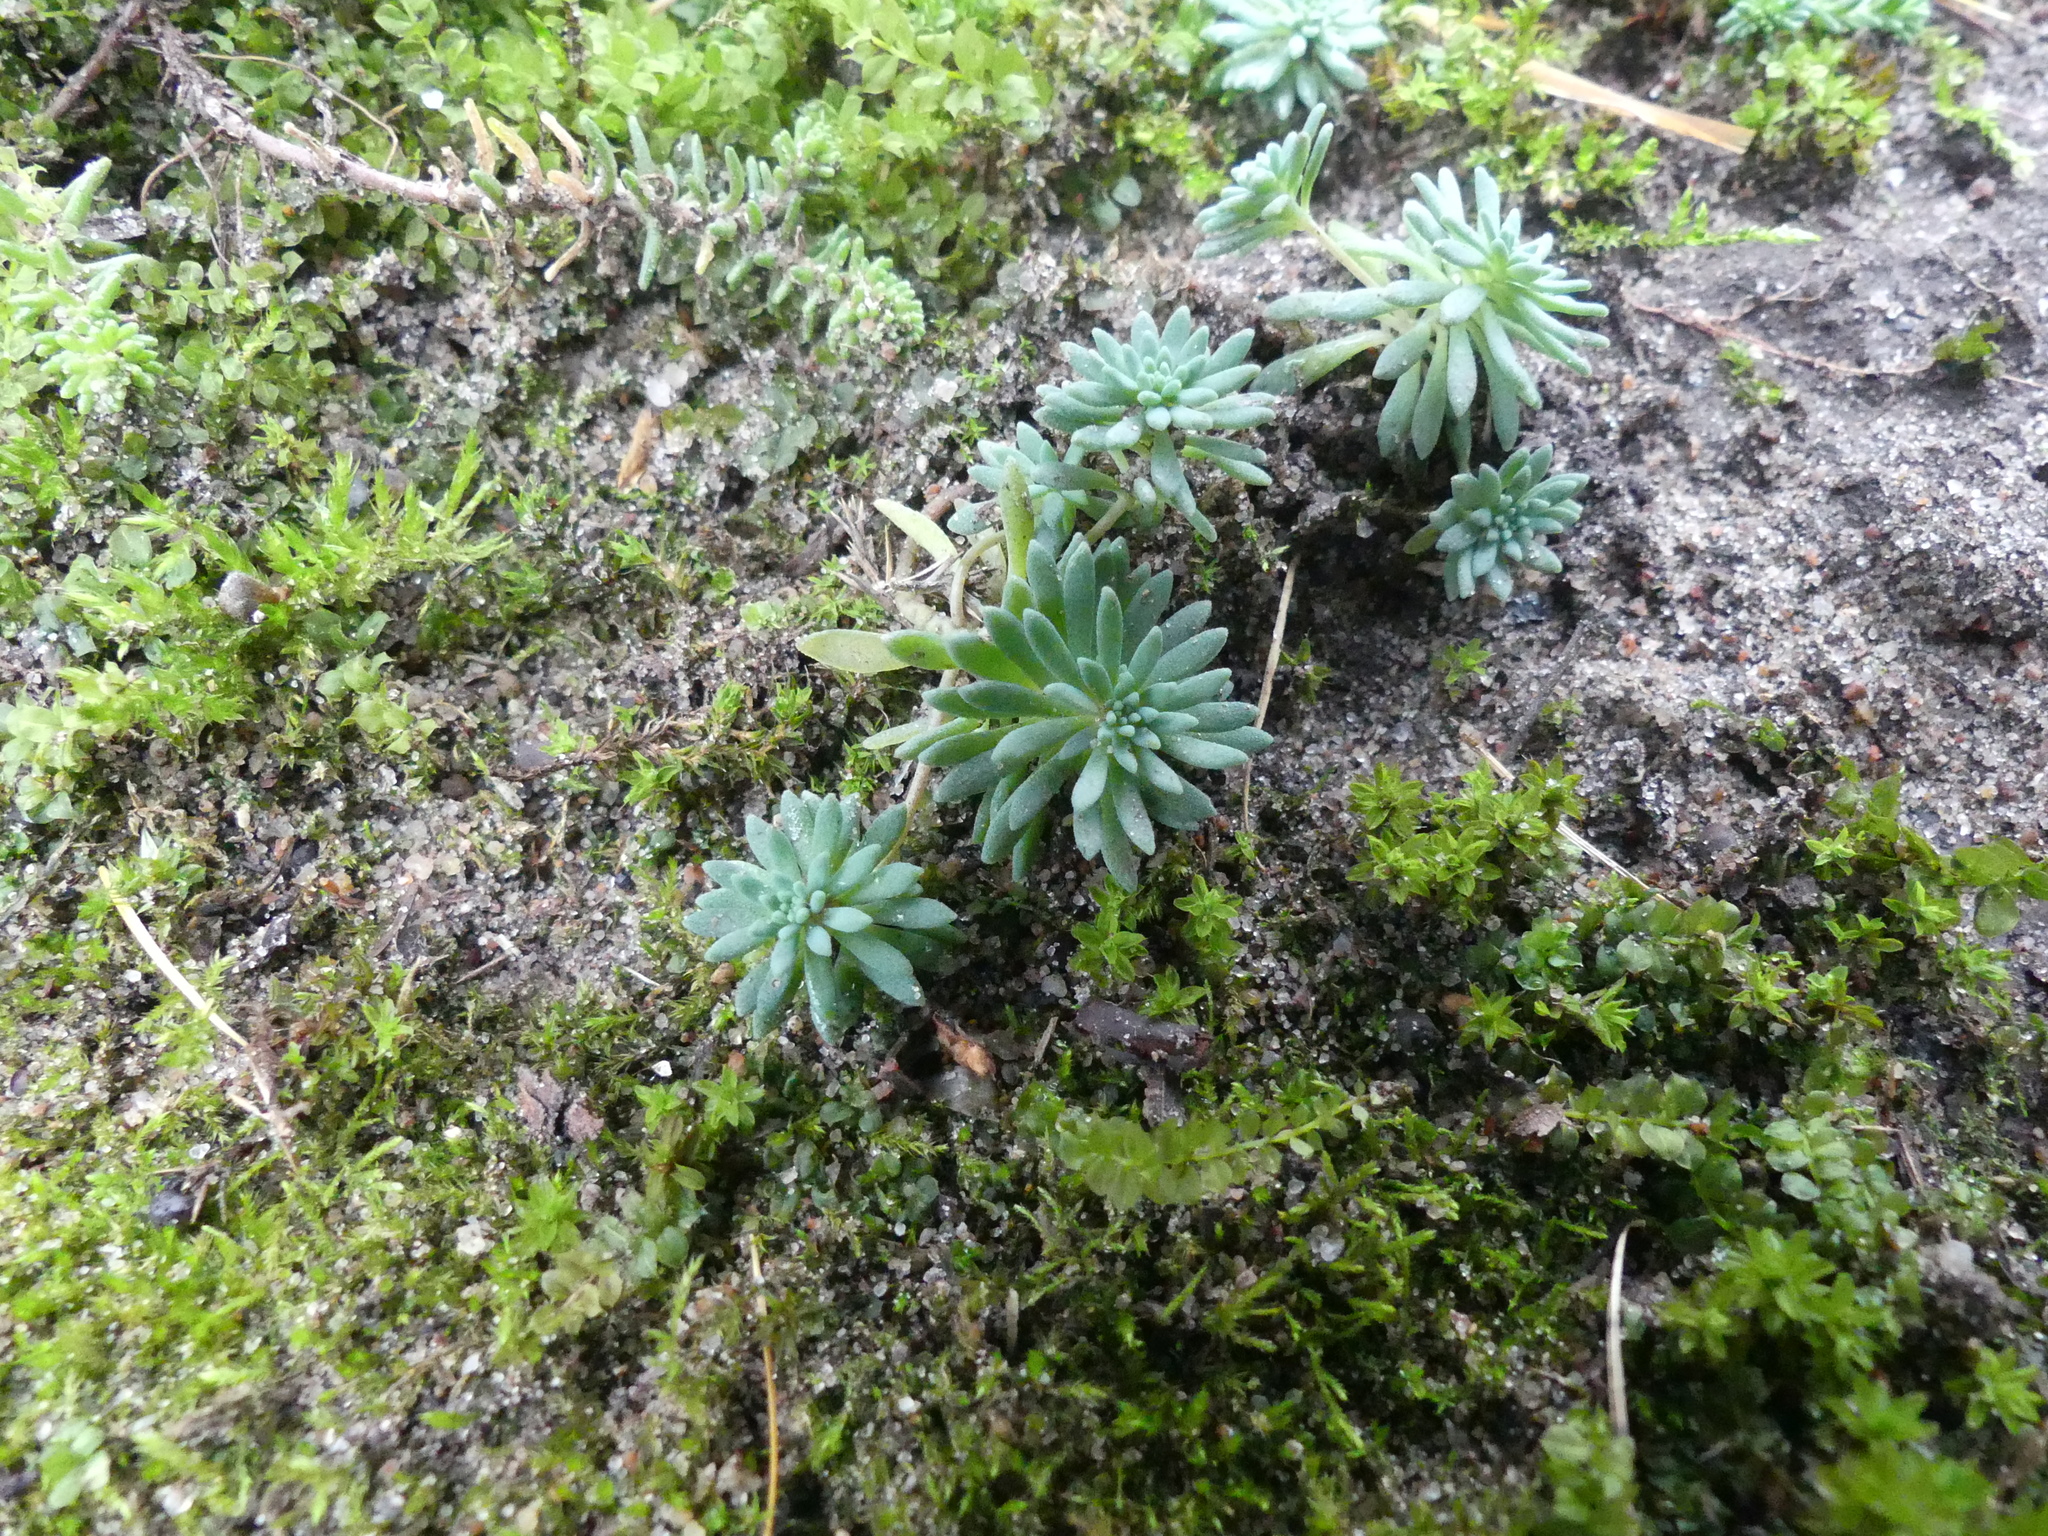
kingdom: Plantae
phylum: Tracheophyta
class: Magnoliopsida
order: Saxifragales
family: Crassulaceae
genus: Sedum
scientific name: Sedum hispanicum
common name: Spanish stonecrop
